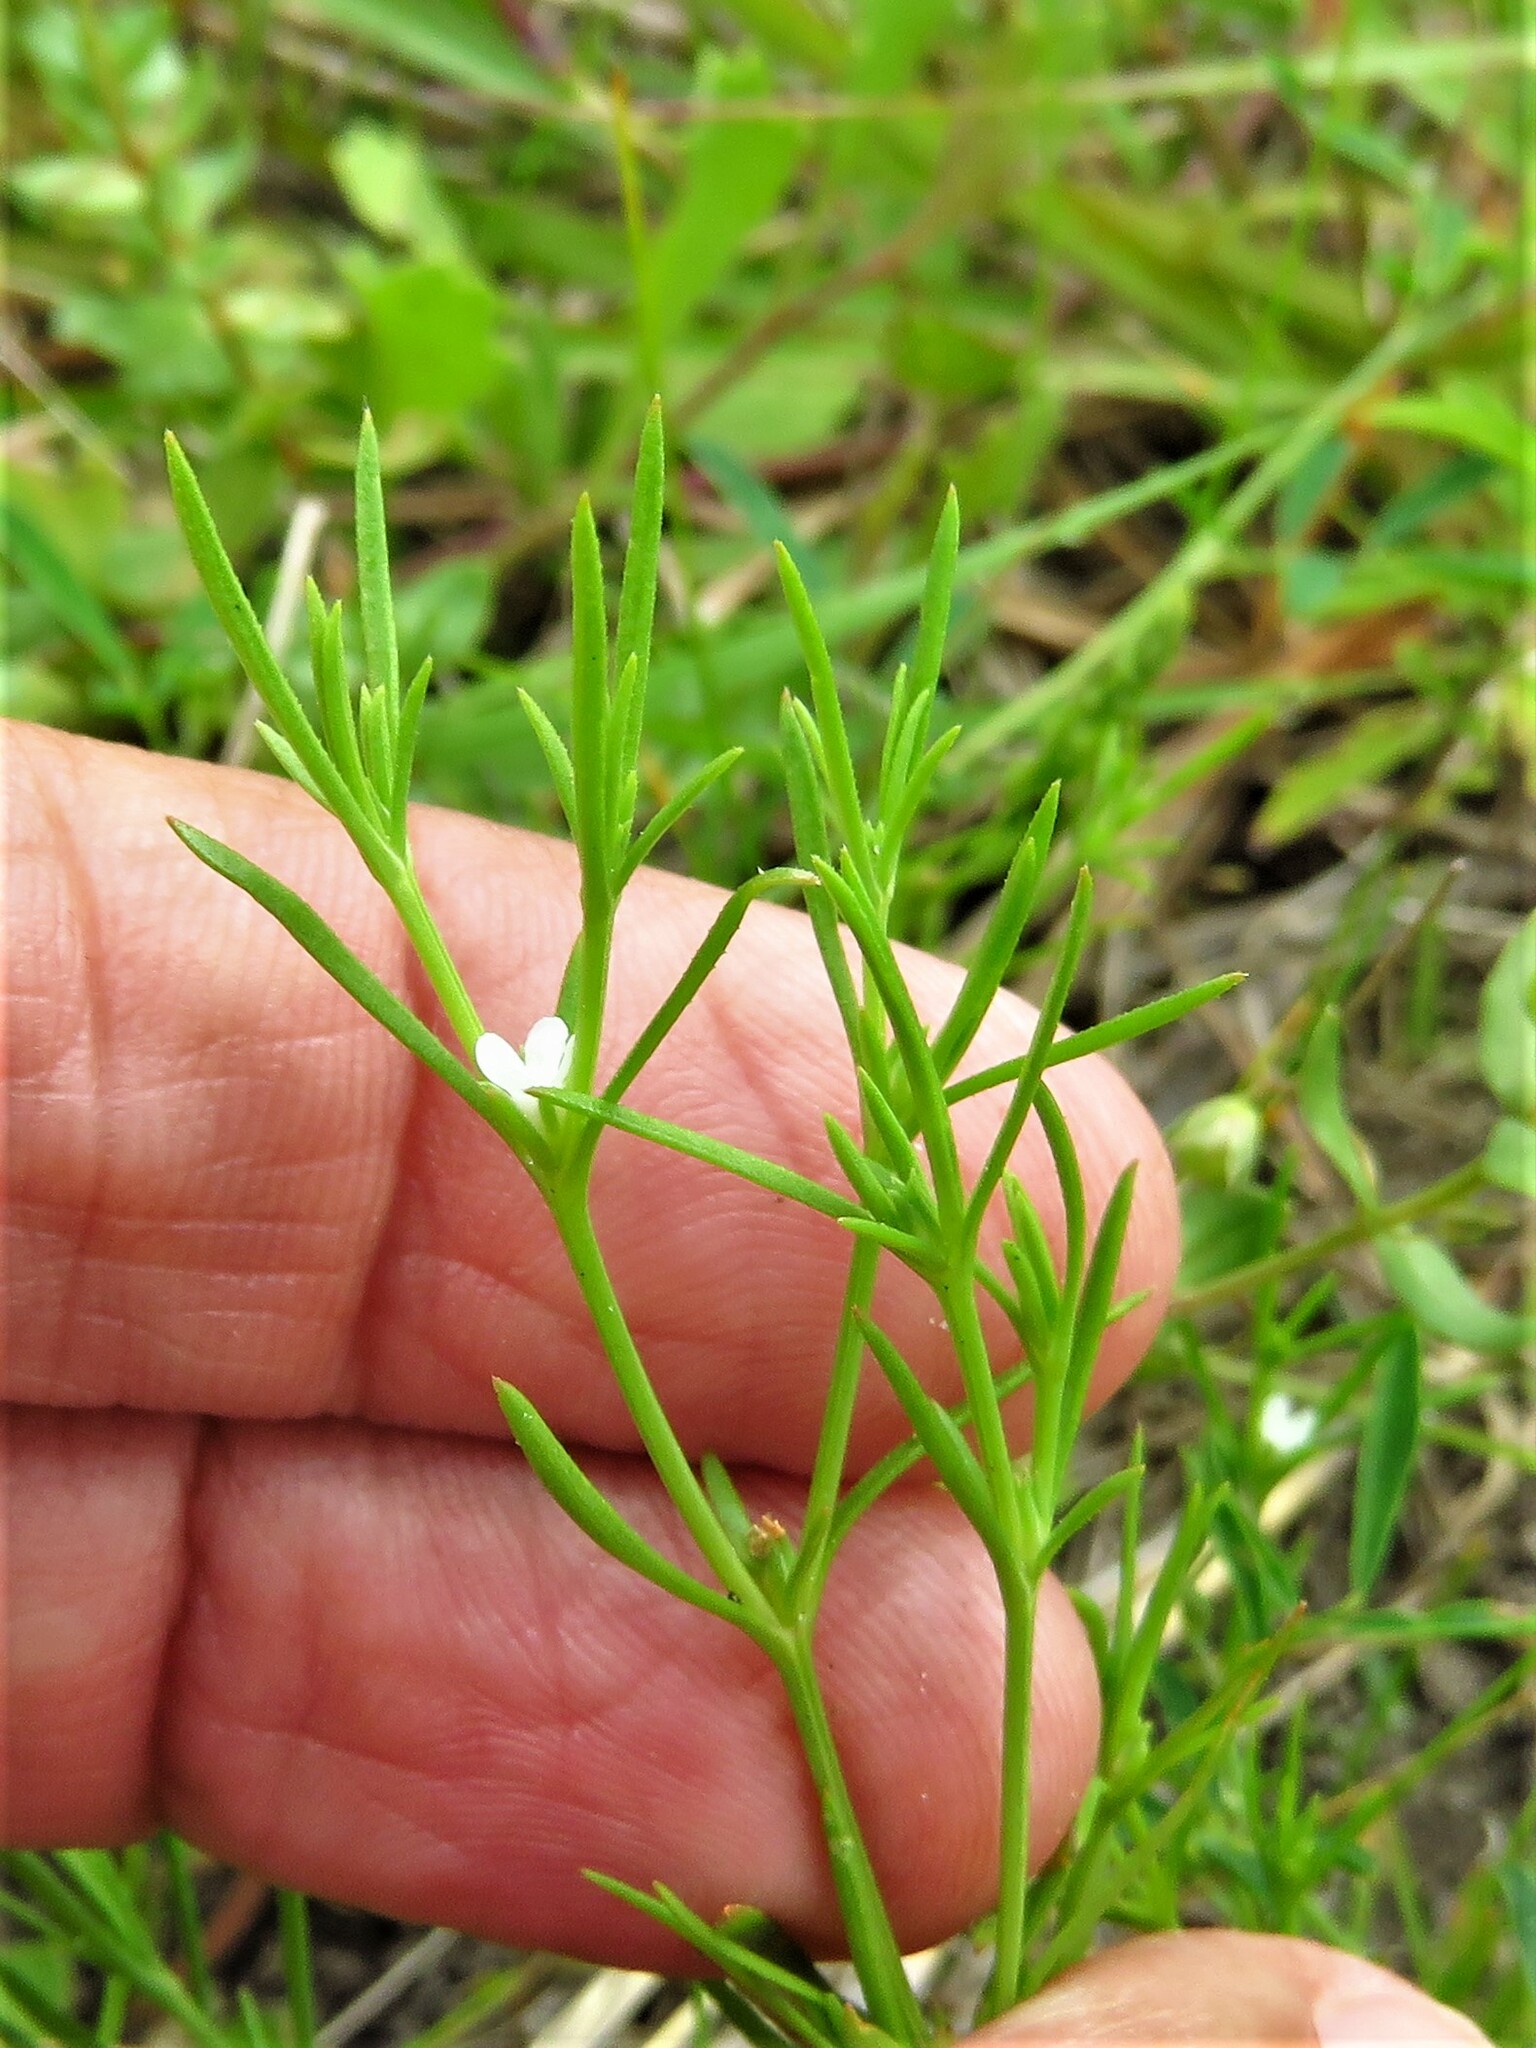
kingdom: Plantae
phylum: Tracheophyta
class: Magnoliopsida
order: Lamiales
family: Tetrachondraceae
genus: Polypremum
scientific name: Polypremum procumbens
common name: Juniper-leaf
